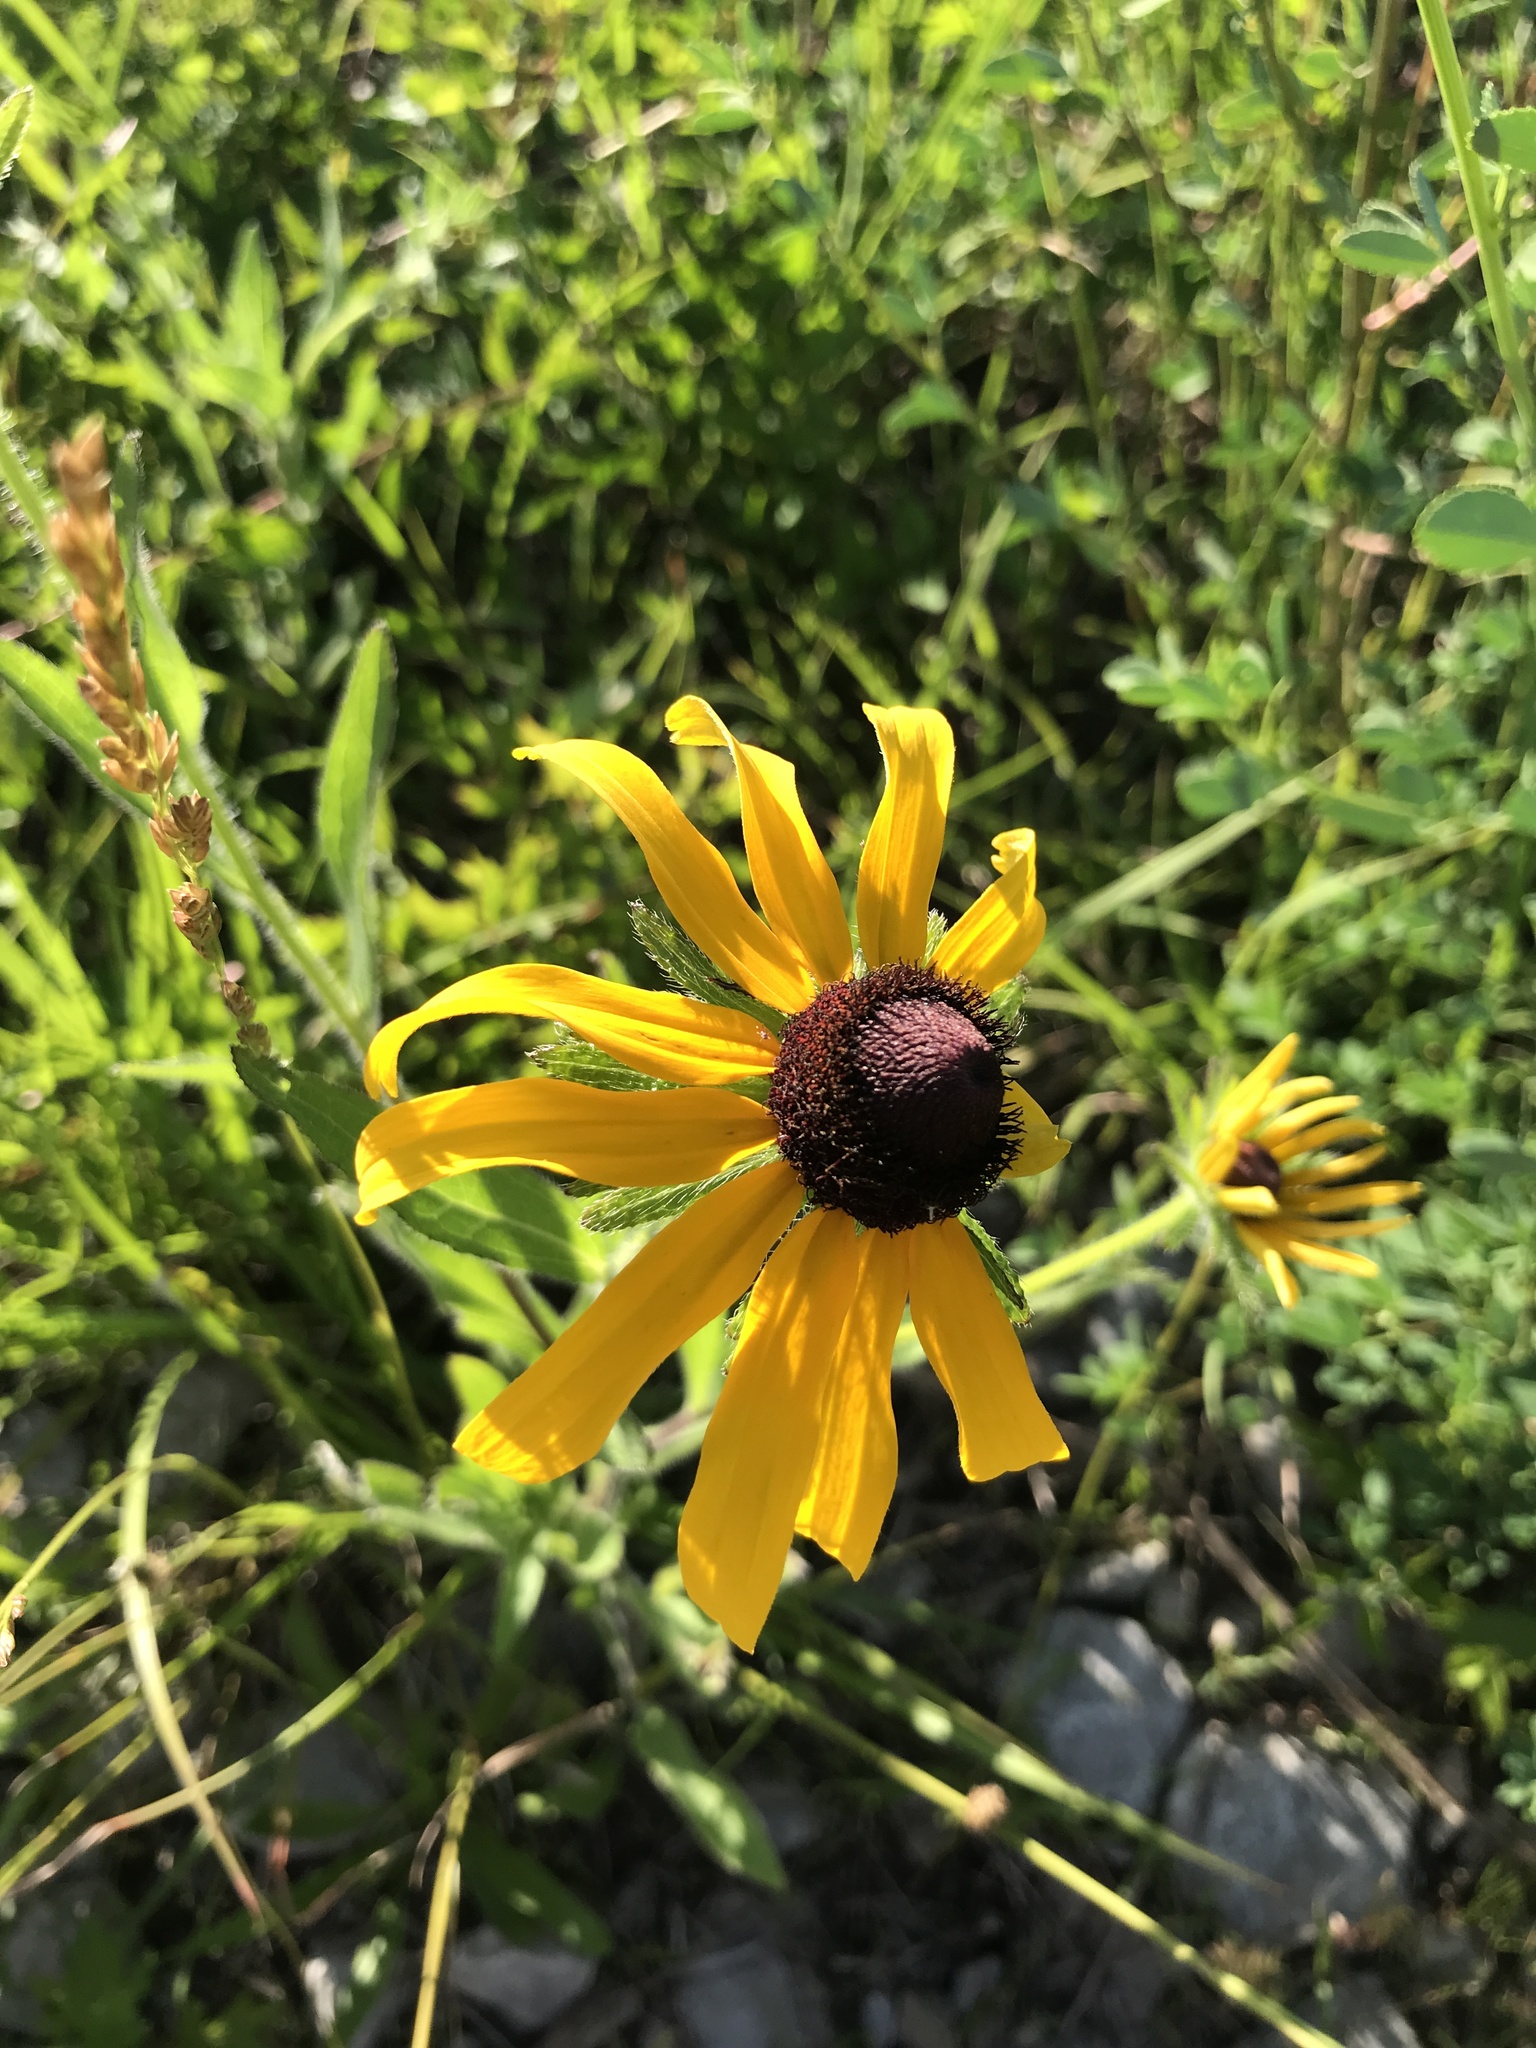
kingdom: Plantae
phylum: Tracheophyta
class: Magnoliopsida
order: Asterales
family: Asteraceae
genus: Rudbeckia
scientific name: Rudbeckia hirta
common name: Black-eyed-susan
